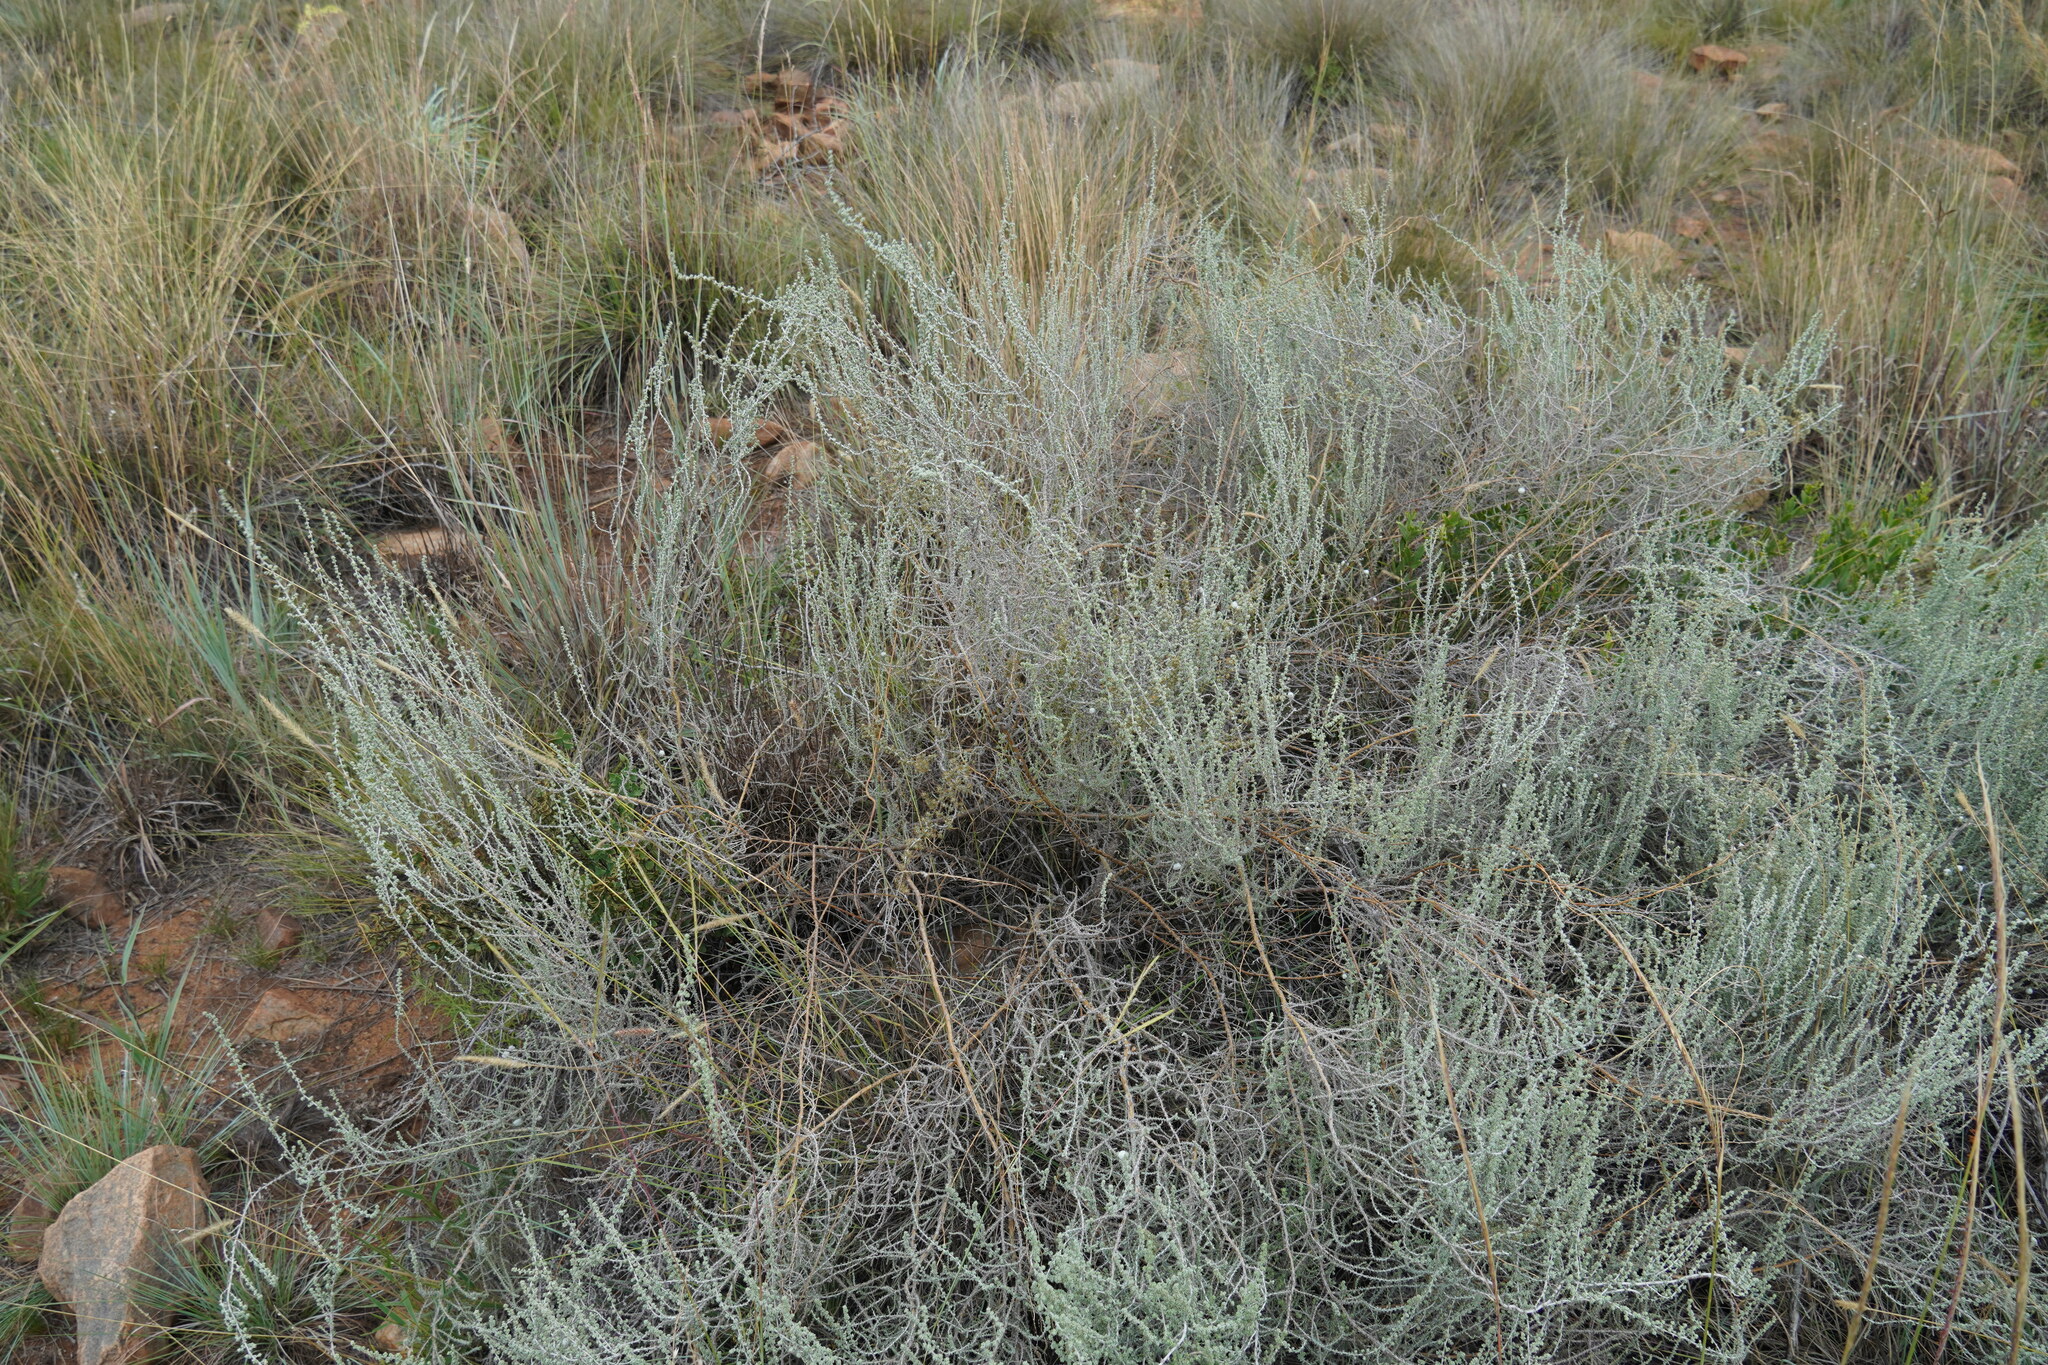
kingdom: Plantae
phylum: Tracheophyta
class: Magnoliopsida
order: Asterales
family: Asteraceae
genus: Seriphium
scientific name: Seriphium plumosum
